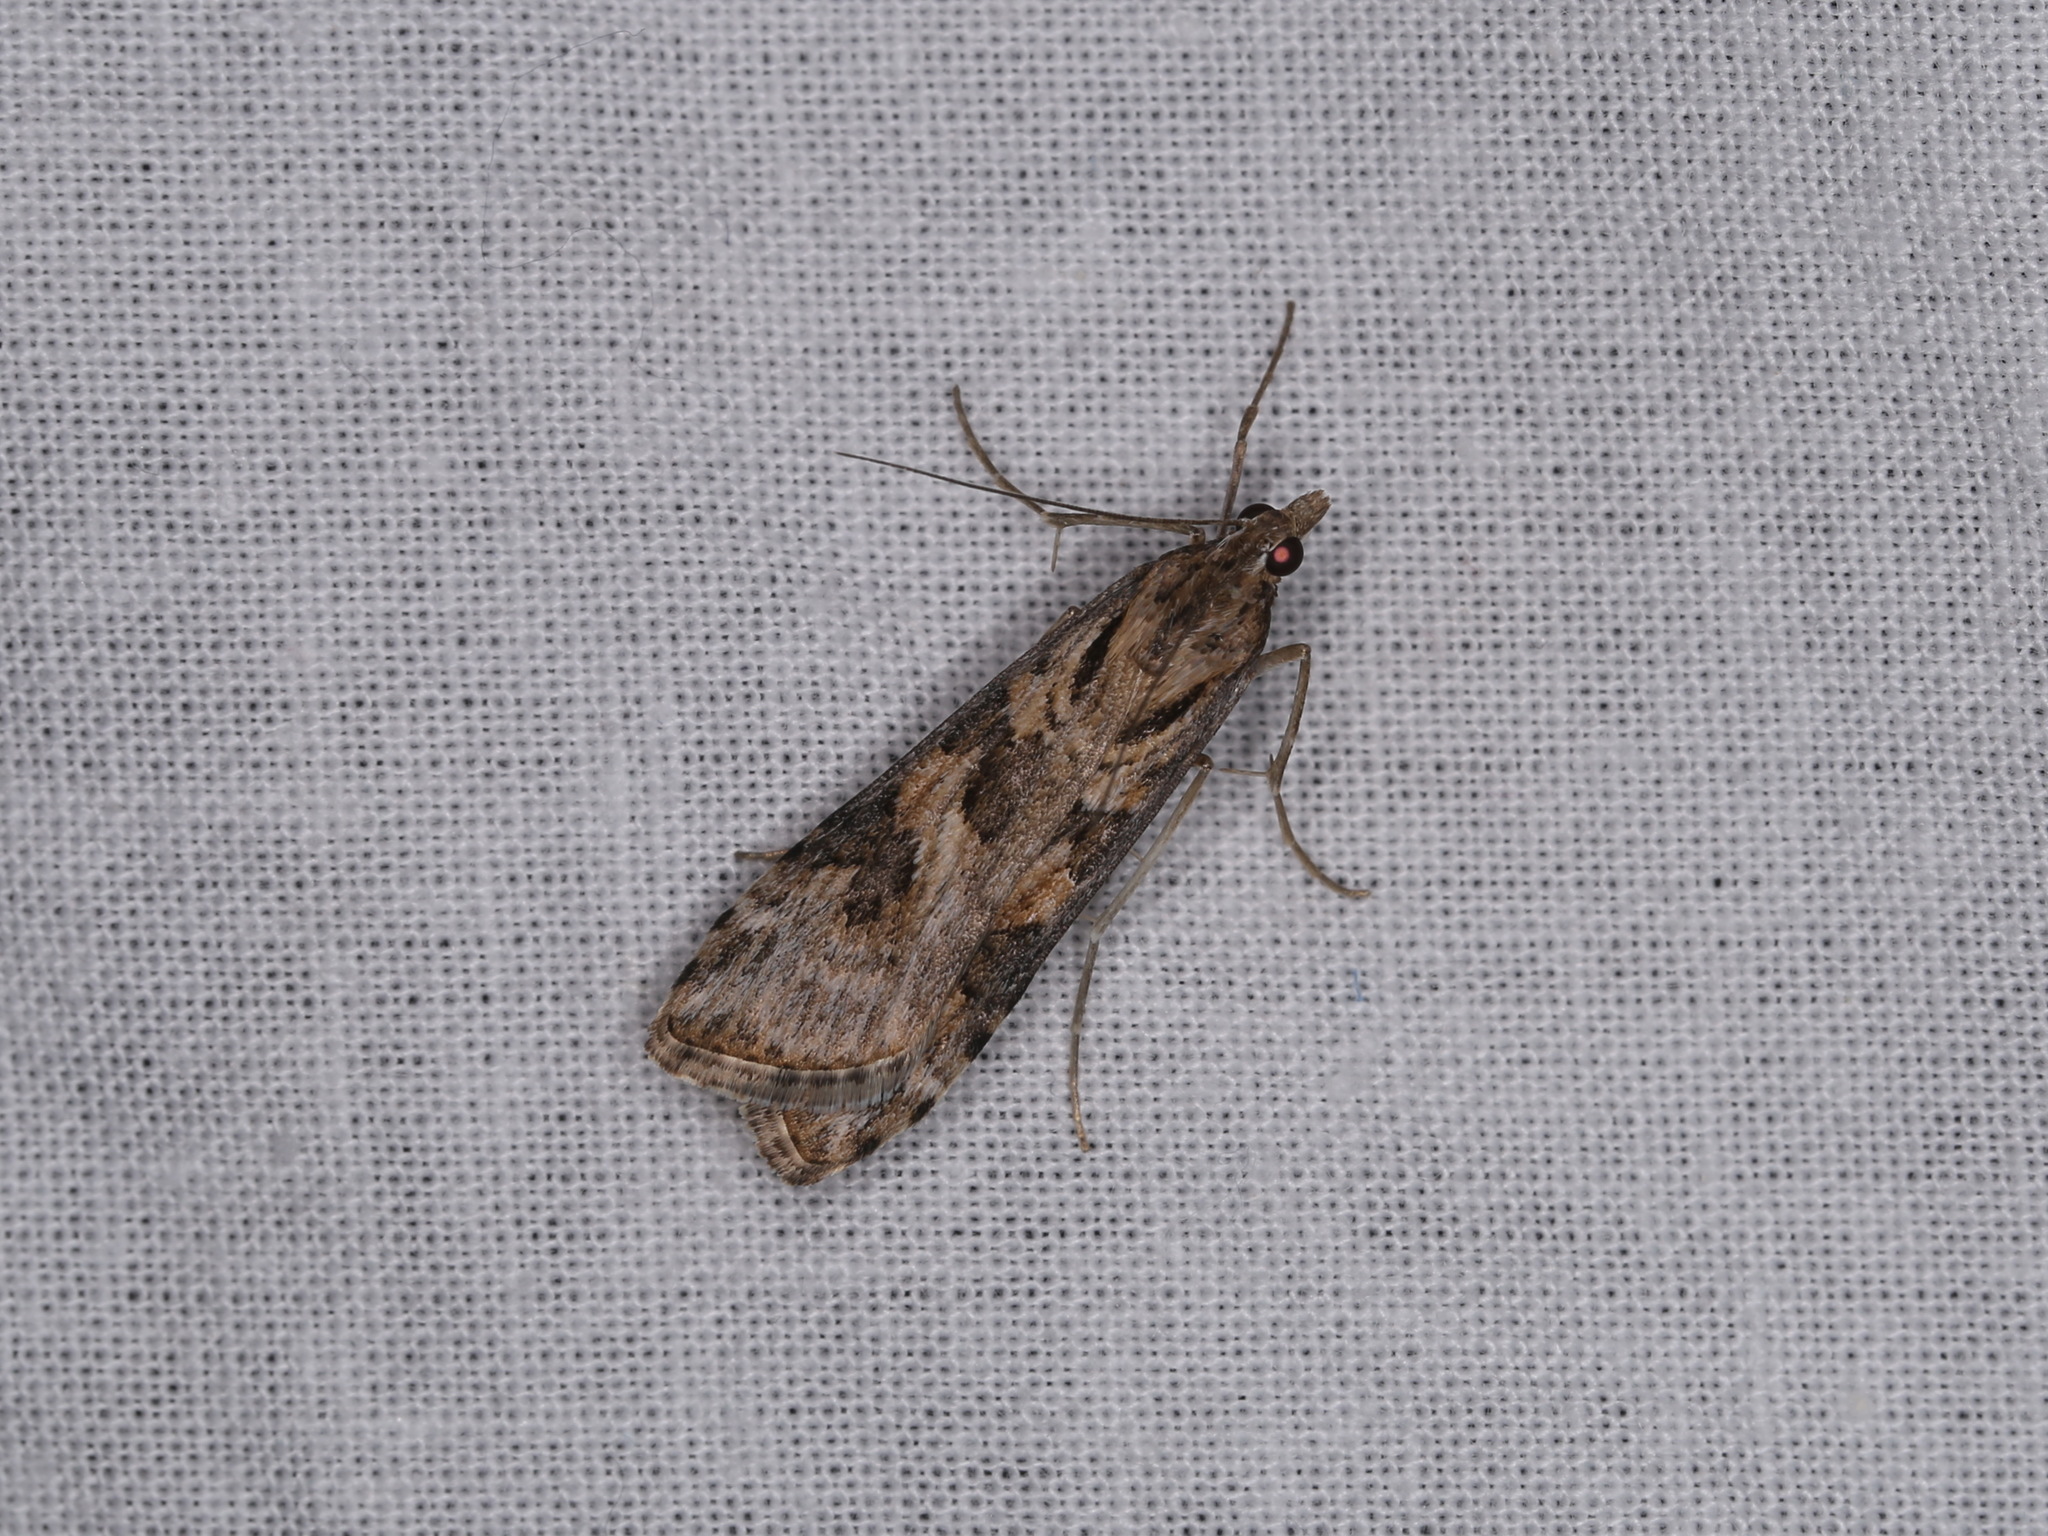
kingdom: Animalia
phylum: Arthropoda
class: Insecta
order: Lepidoptera
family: Crambidae
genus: Nomophila
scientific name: Nomophila corticalis
